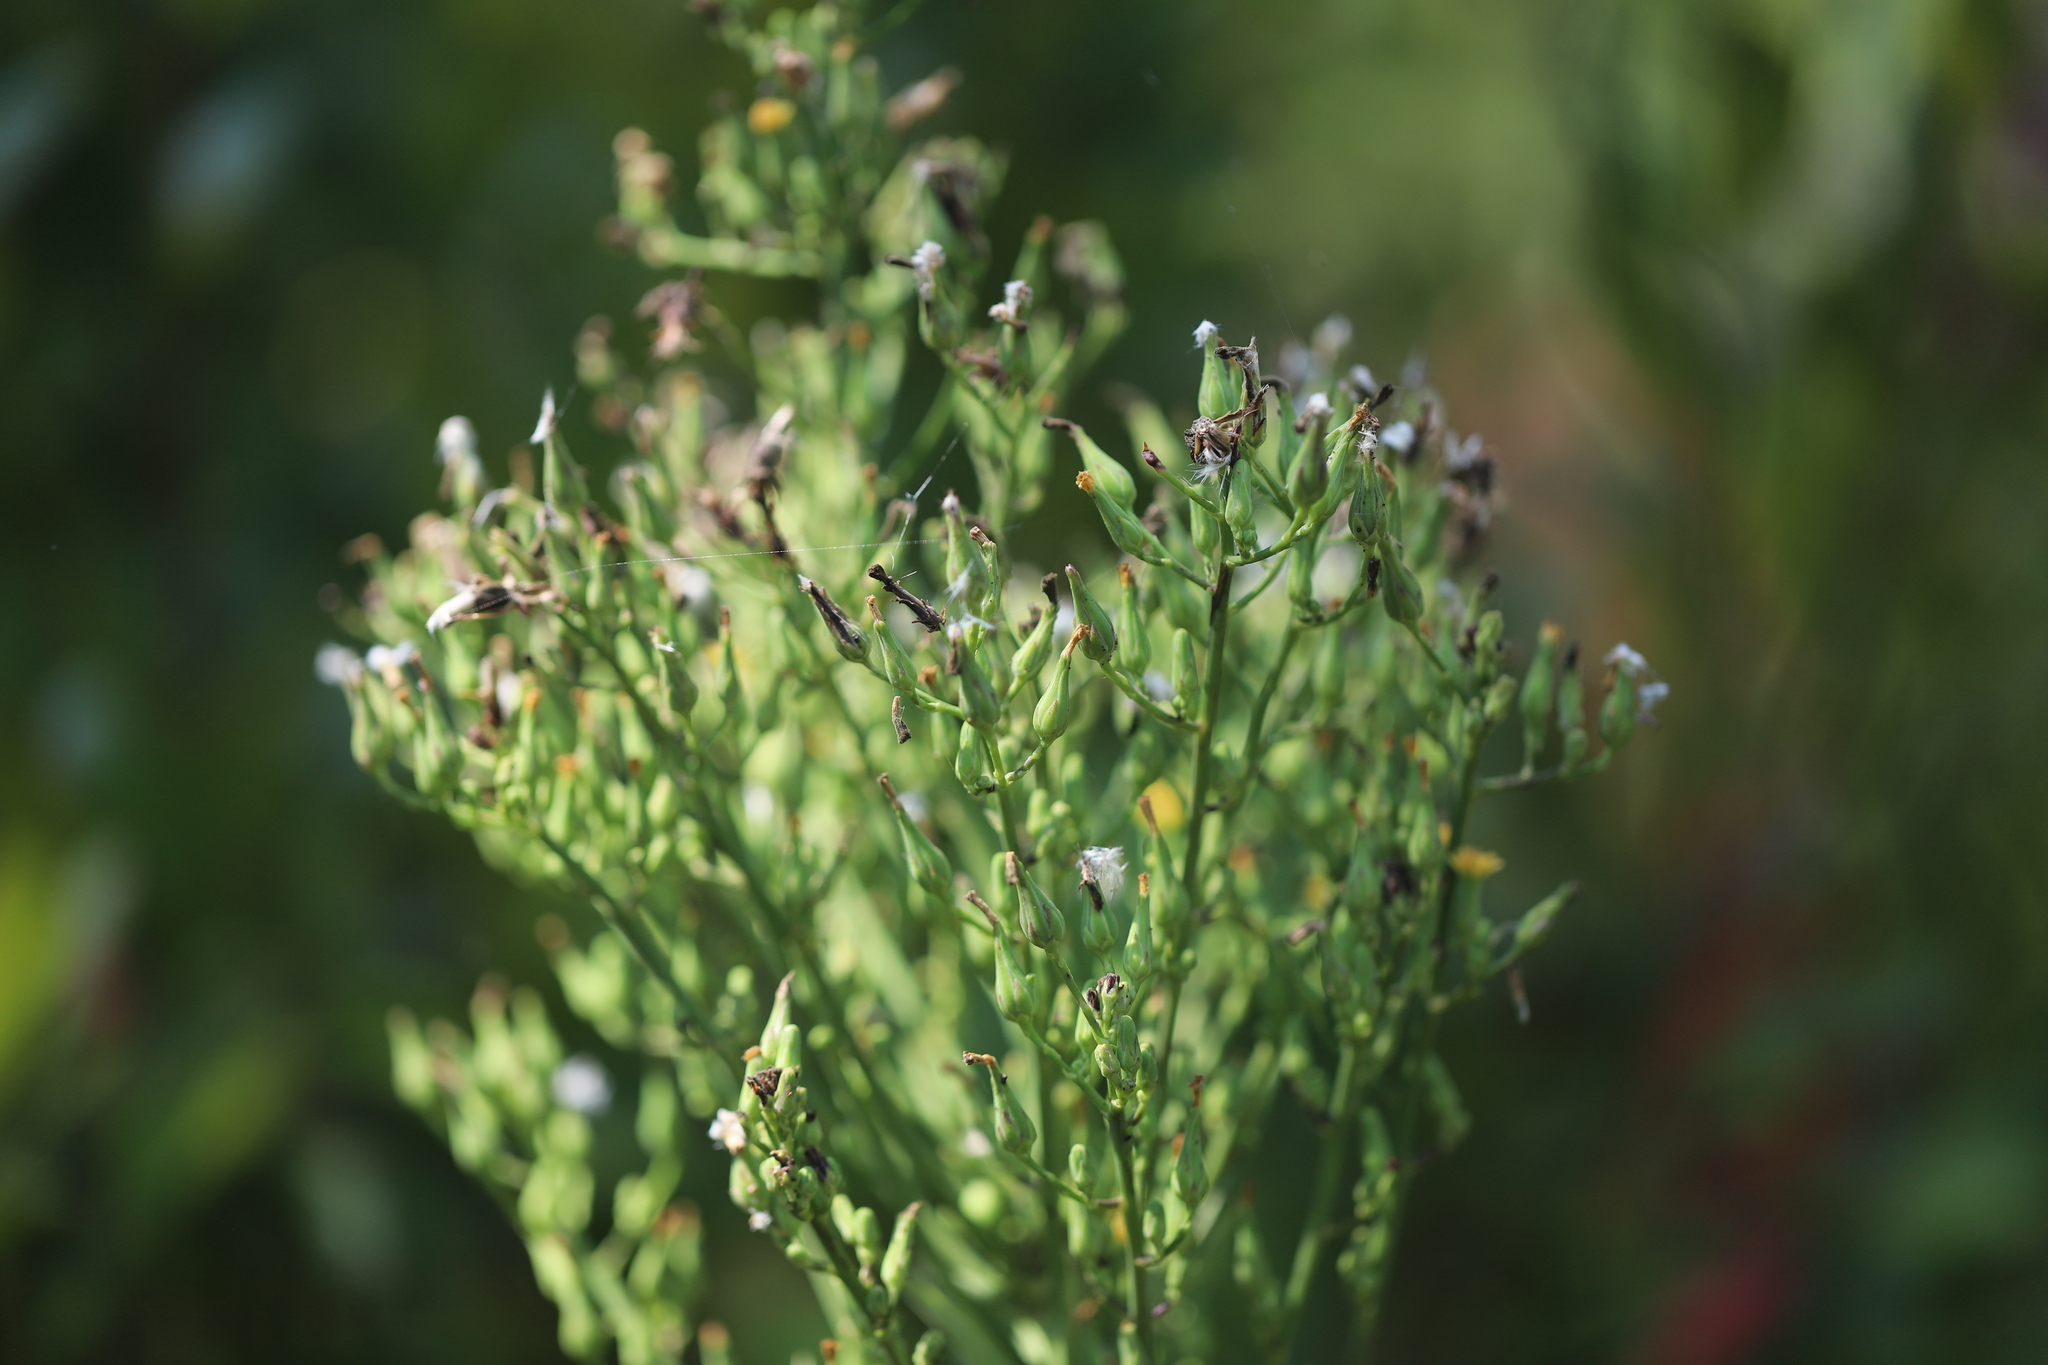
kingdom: Plantae
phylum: Tracheophyta
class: Magnoliopsida
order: Asterales
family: Asteraceae
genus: Lactuca
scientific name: Lactuca canadensis
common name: Canada lettuce
